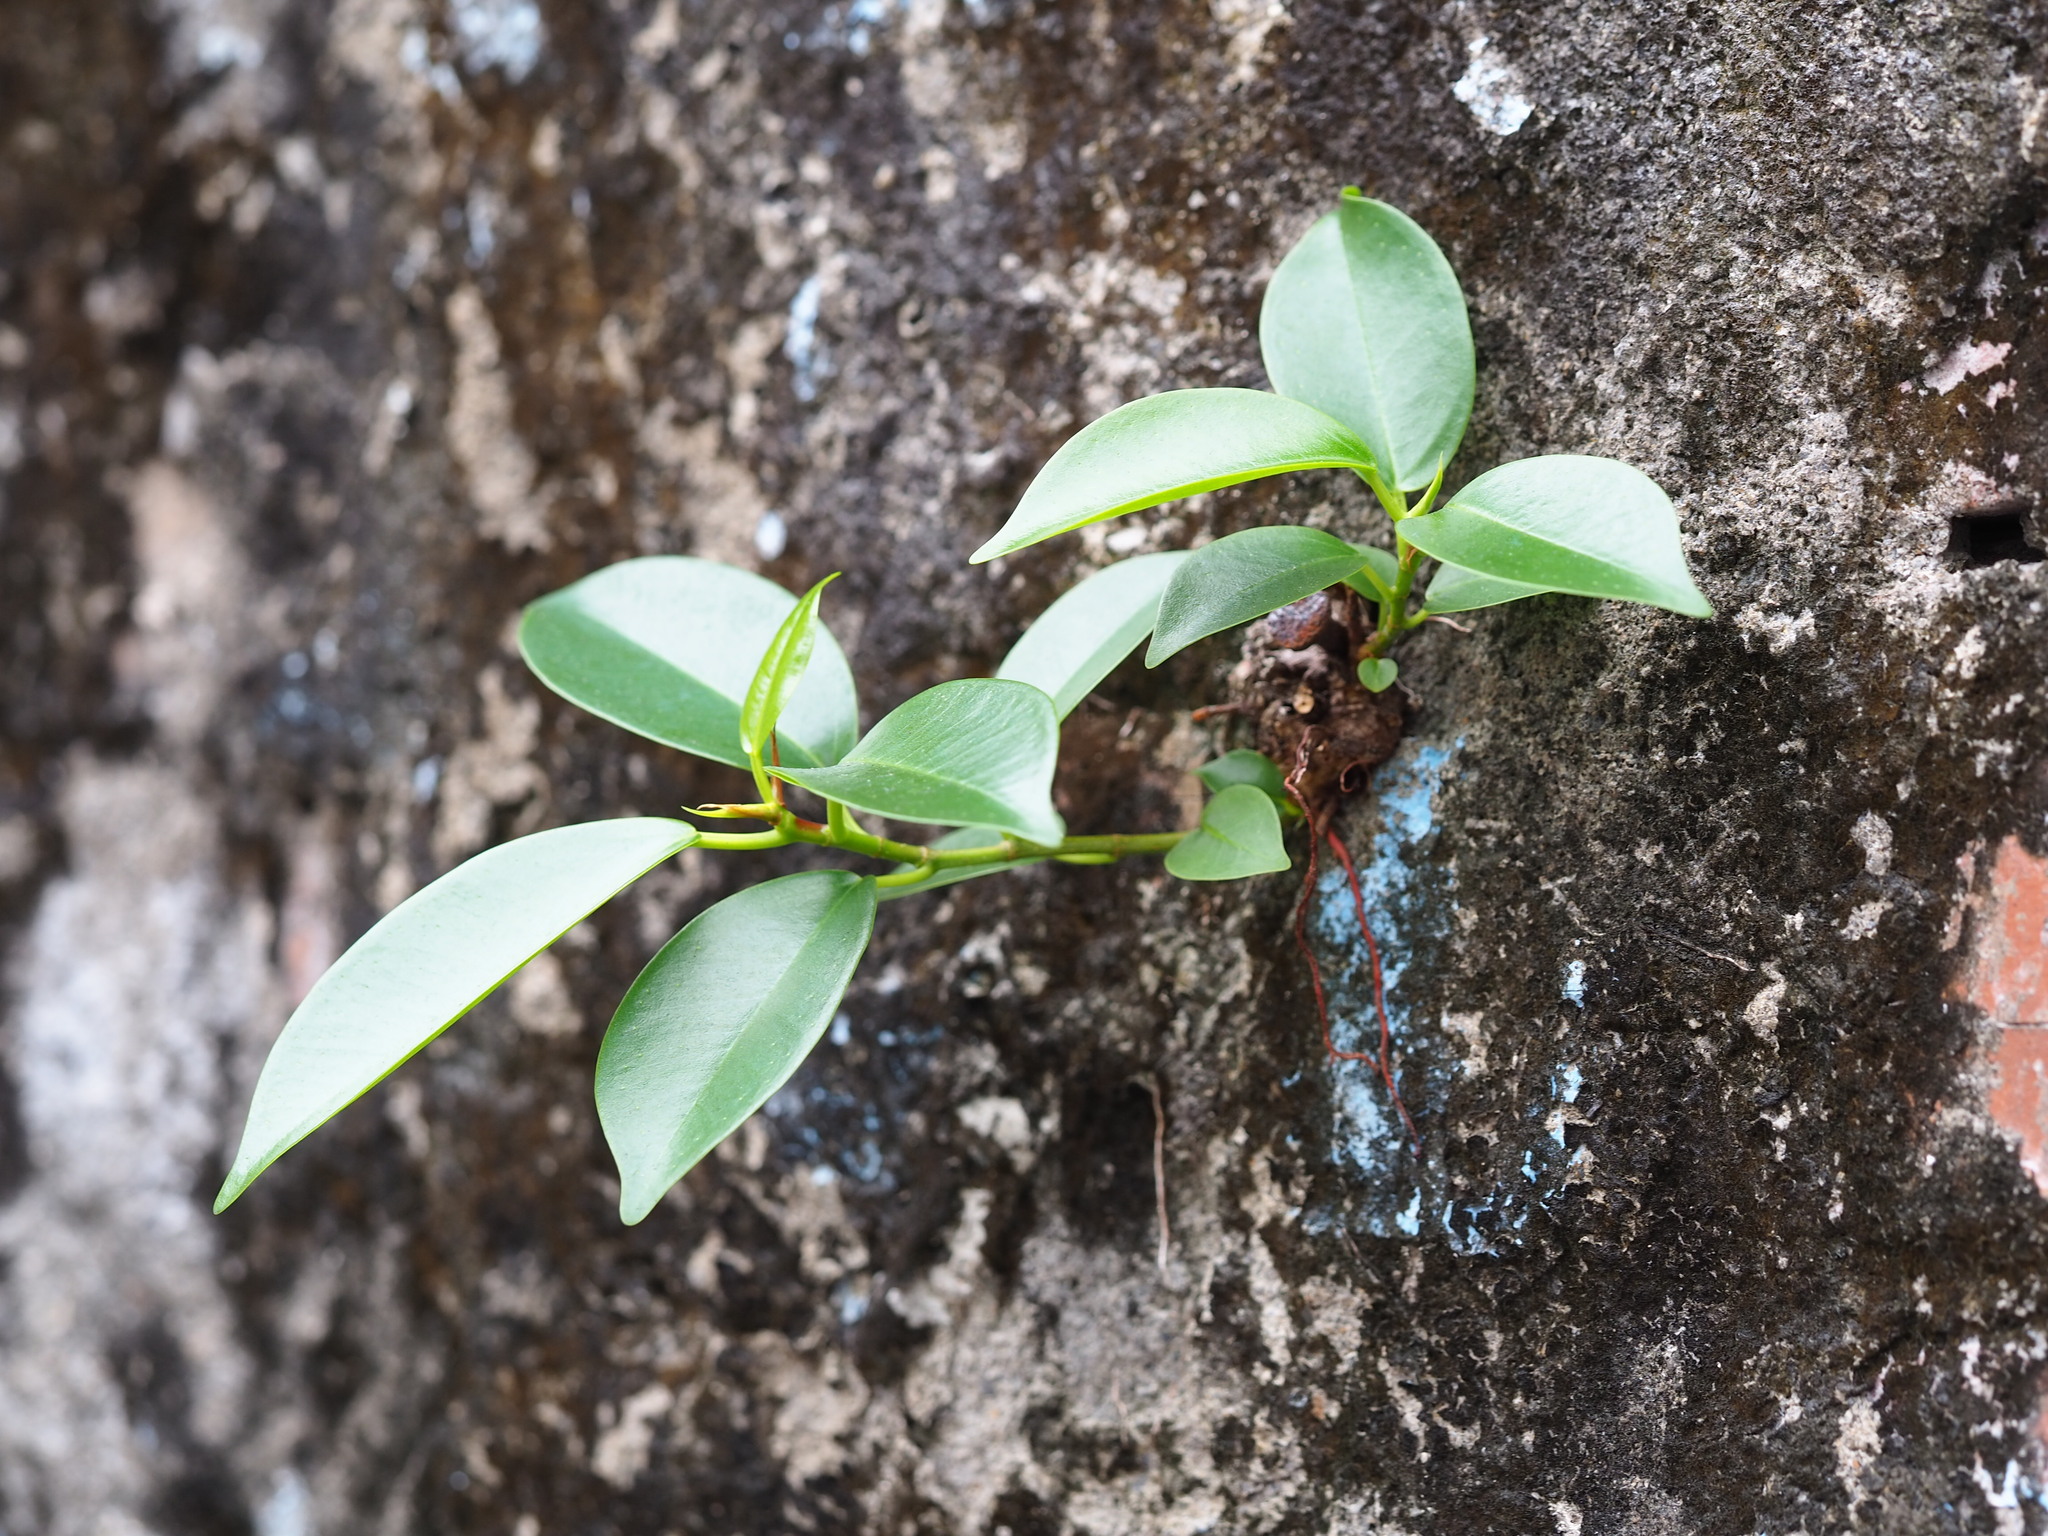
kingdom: Plantae
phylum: Tracheophyta
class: Magnoliopsida
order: Rosales
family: Moraceae
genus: Ficus
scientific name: Ficus microcarpa
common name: Chinese banyan
